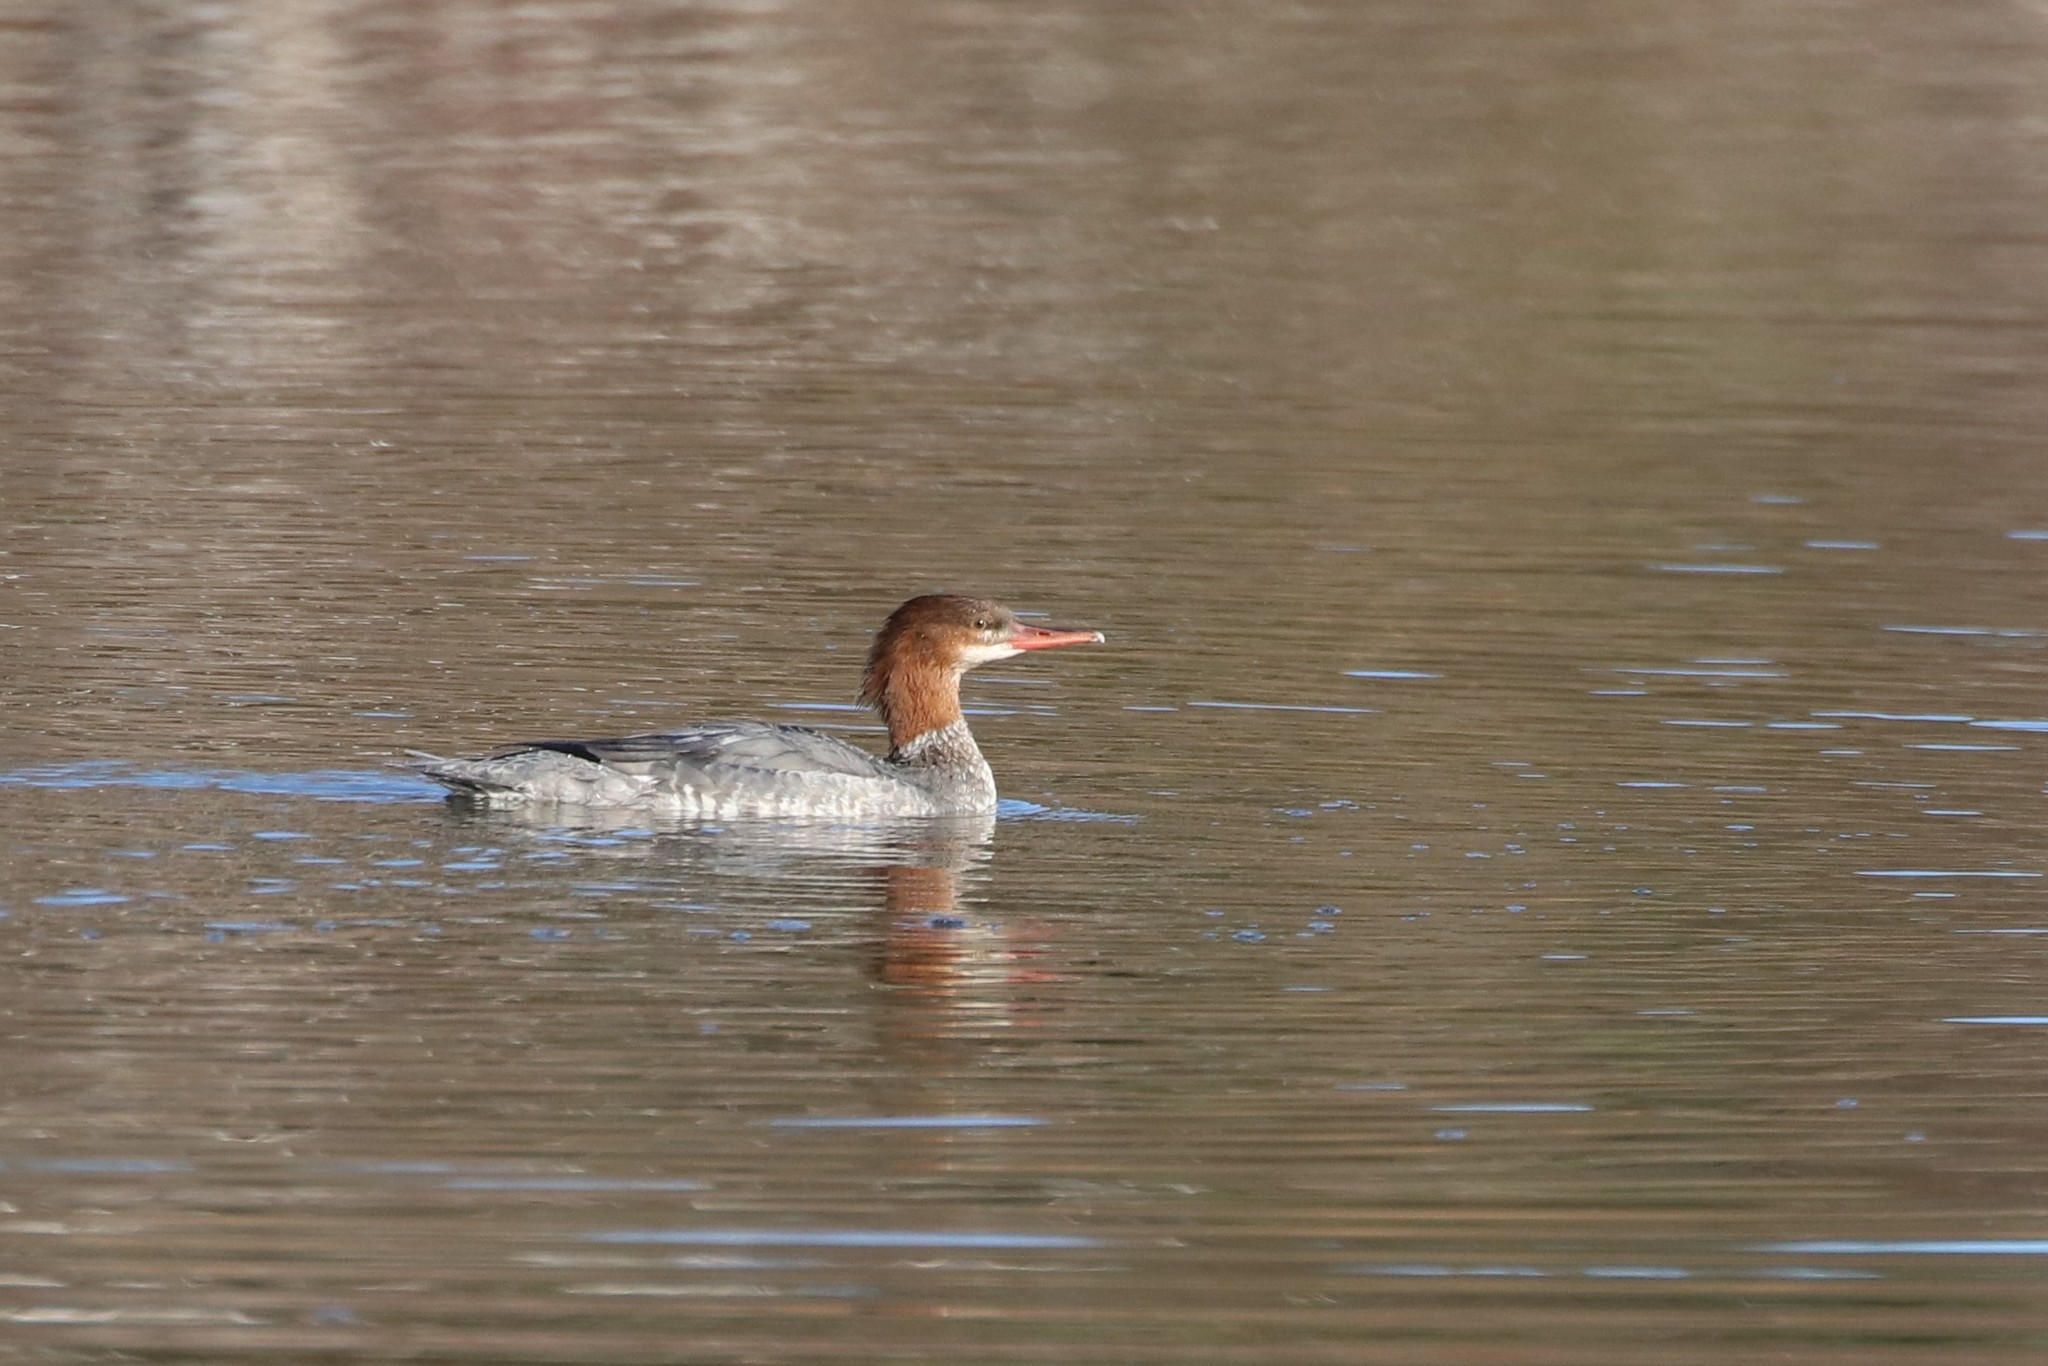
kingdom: Animalia
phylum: Chordata
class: Aves
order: Anseriformes
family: Anatidae
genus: Mergus
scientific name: Mergus merganser
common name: Common merganser
